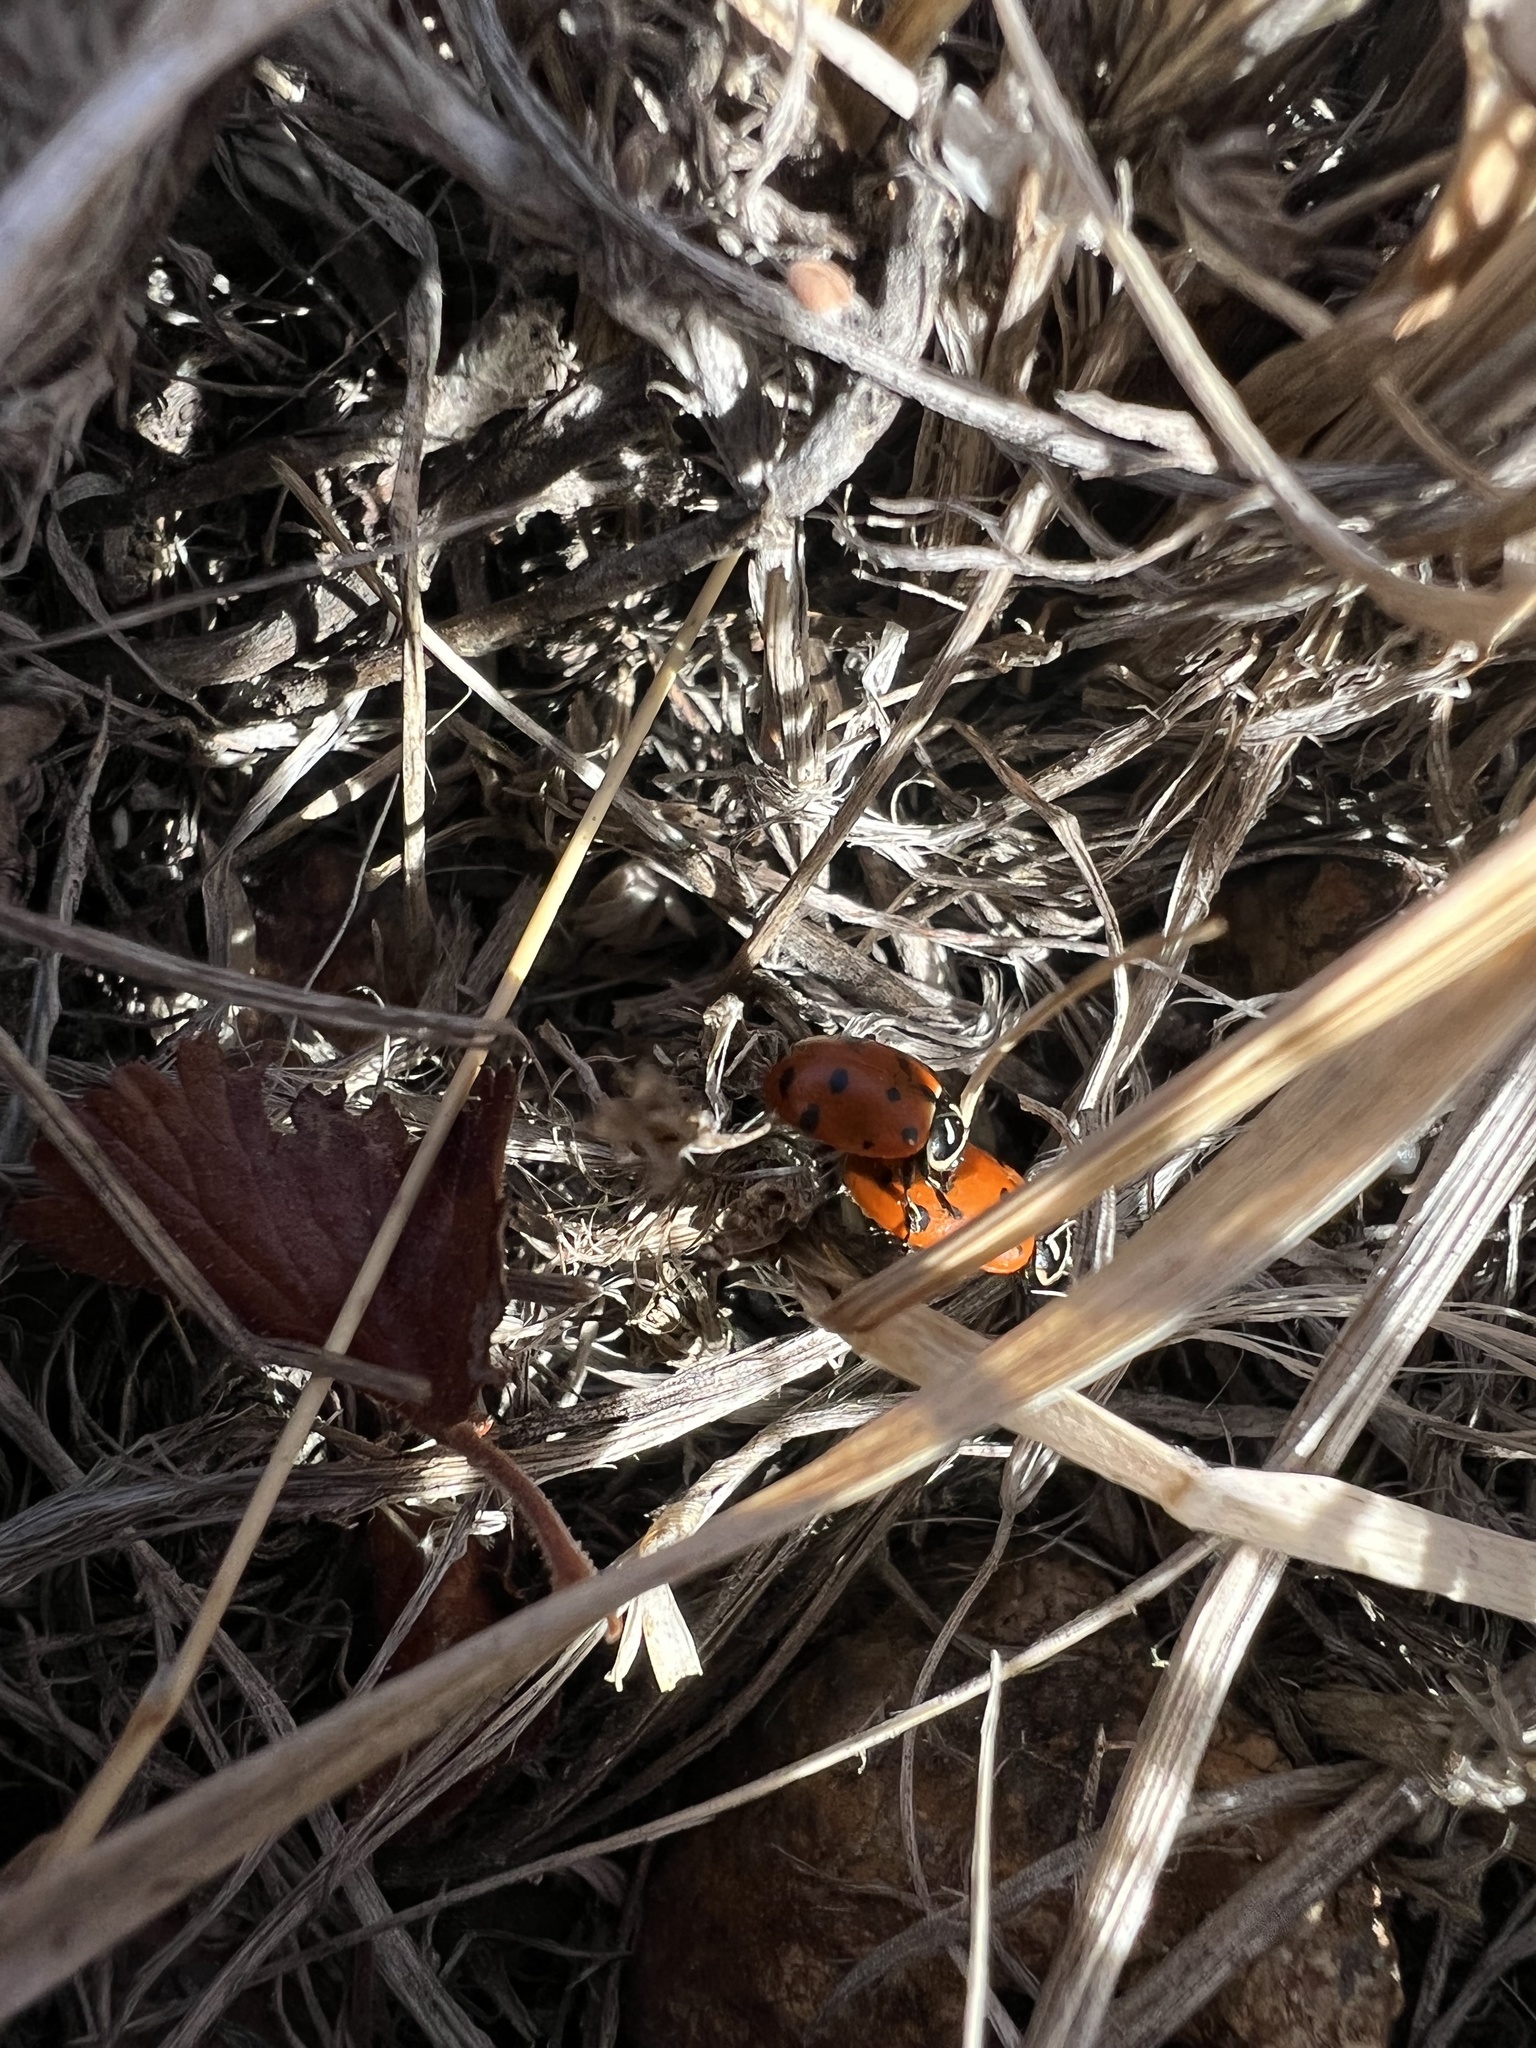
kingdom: Animalia
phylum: Arthropoda
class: Insecta
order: Coleoptera
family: Coccinellidae
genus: Hippodamia
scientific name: Hippodamia convergens
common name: Convergent lady beetle
